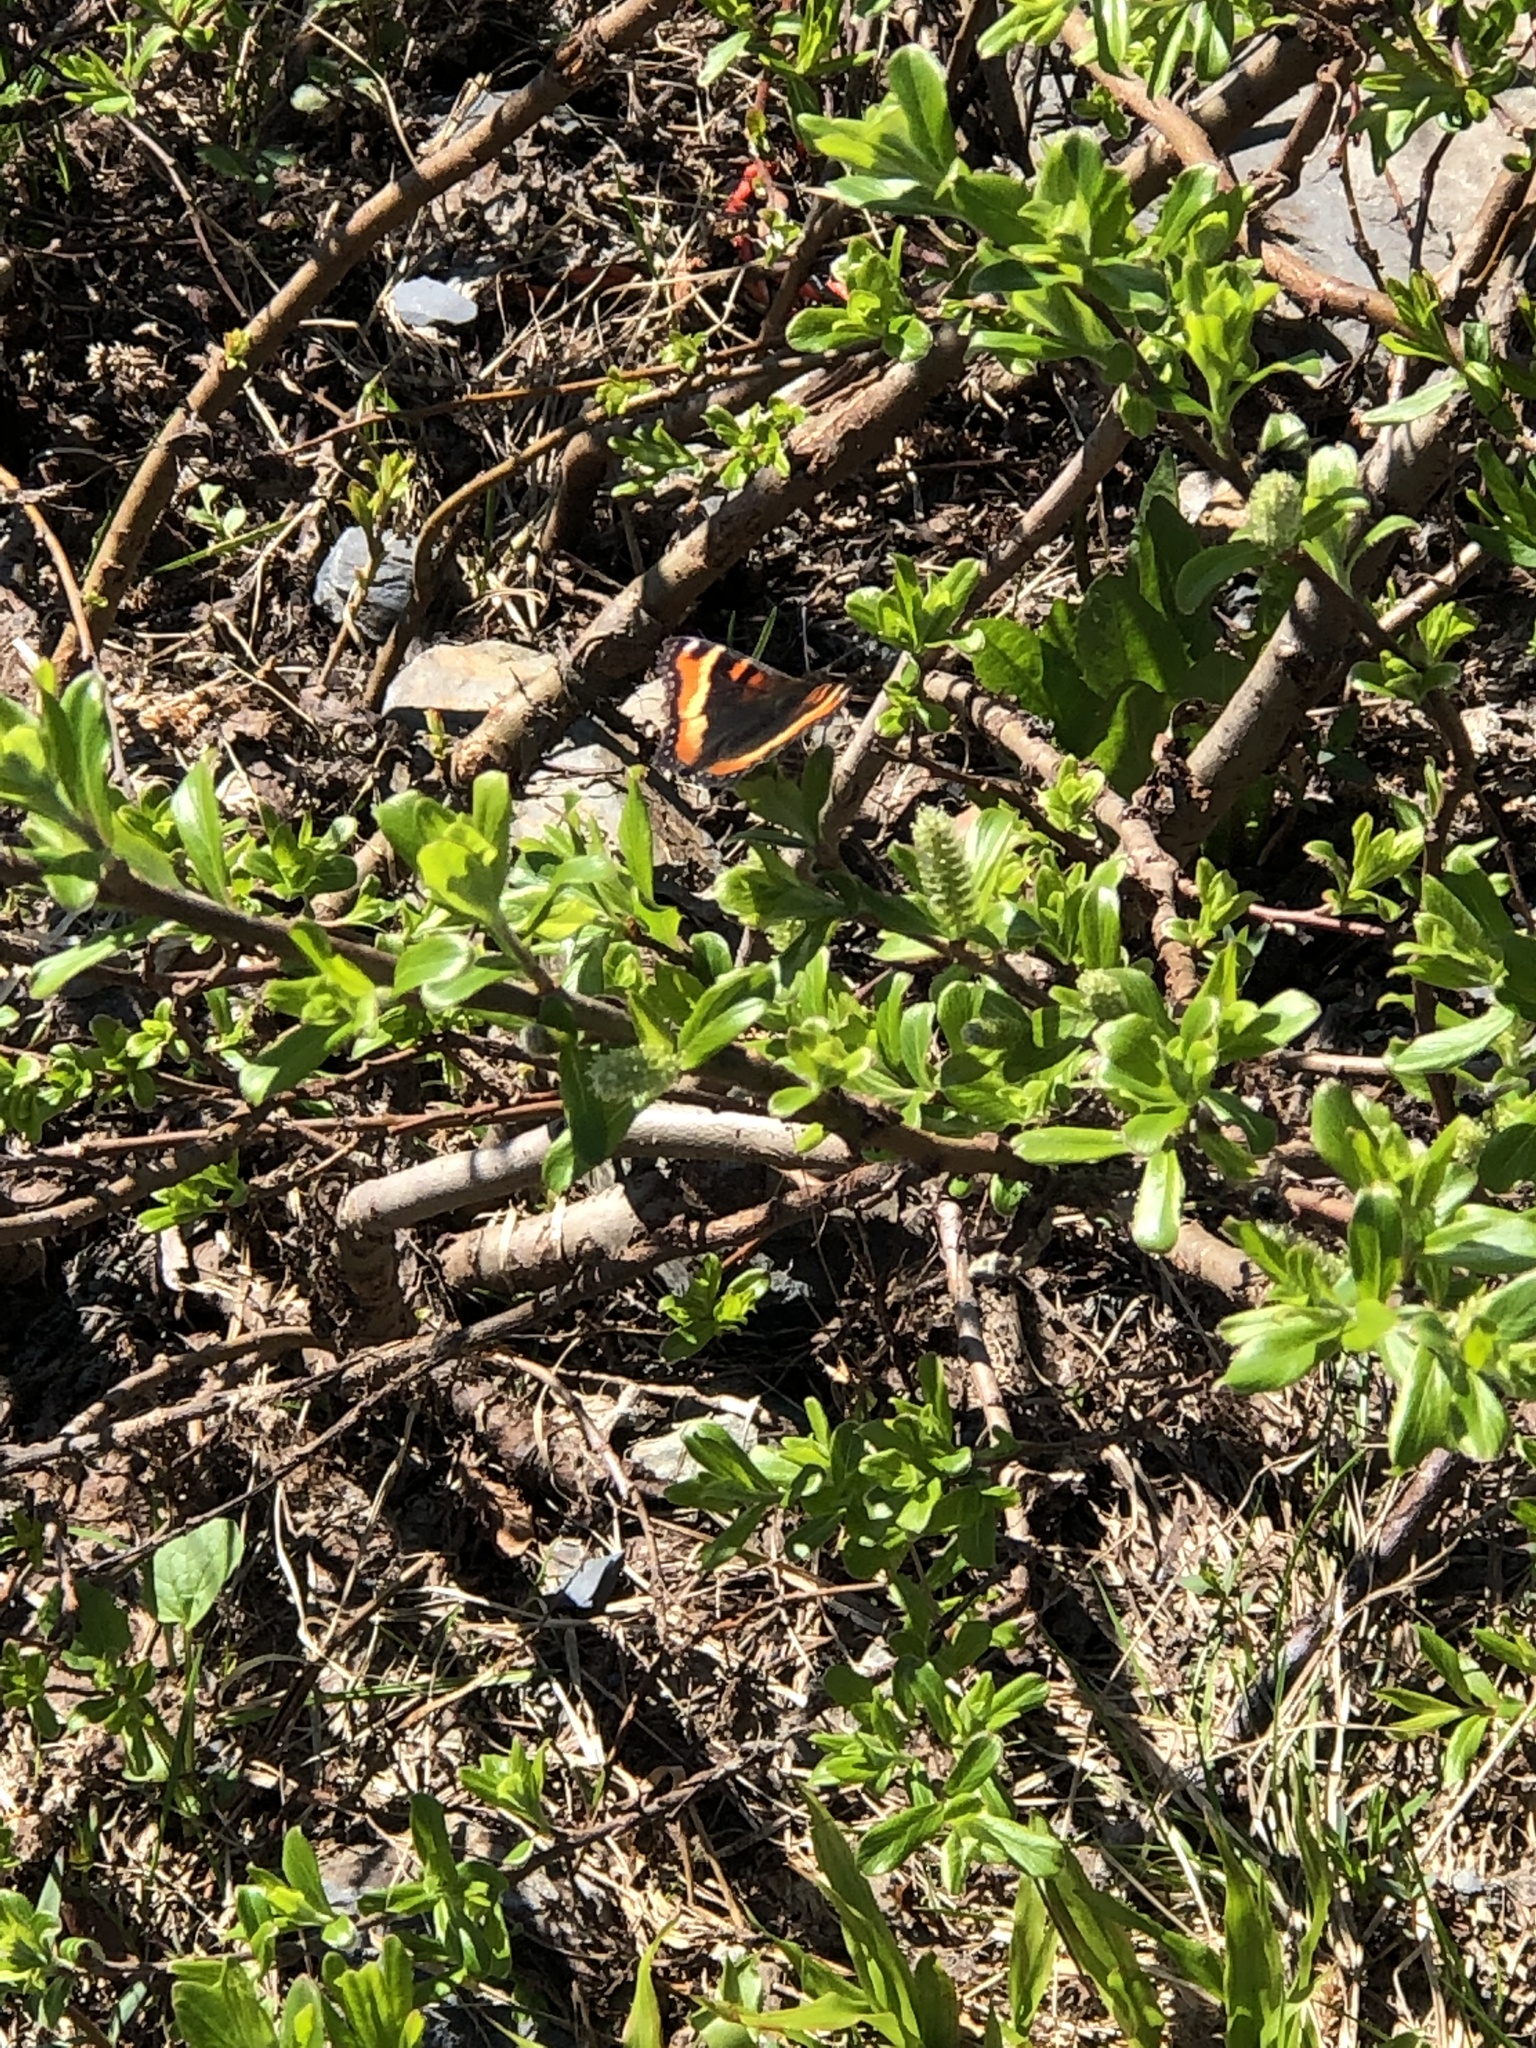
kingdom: Animalia
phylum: Arthropoda
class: Insecta
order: Lepidoptera
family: Nymphalidae
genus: Aglais
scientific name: Aglais milberti
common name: Milbert's tortoiseshell
